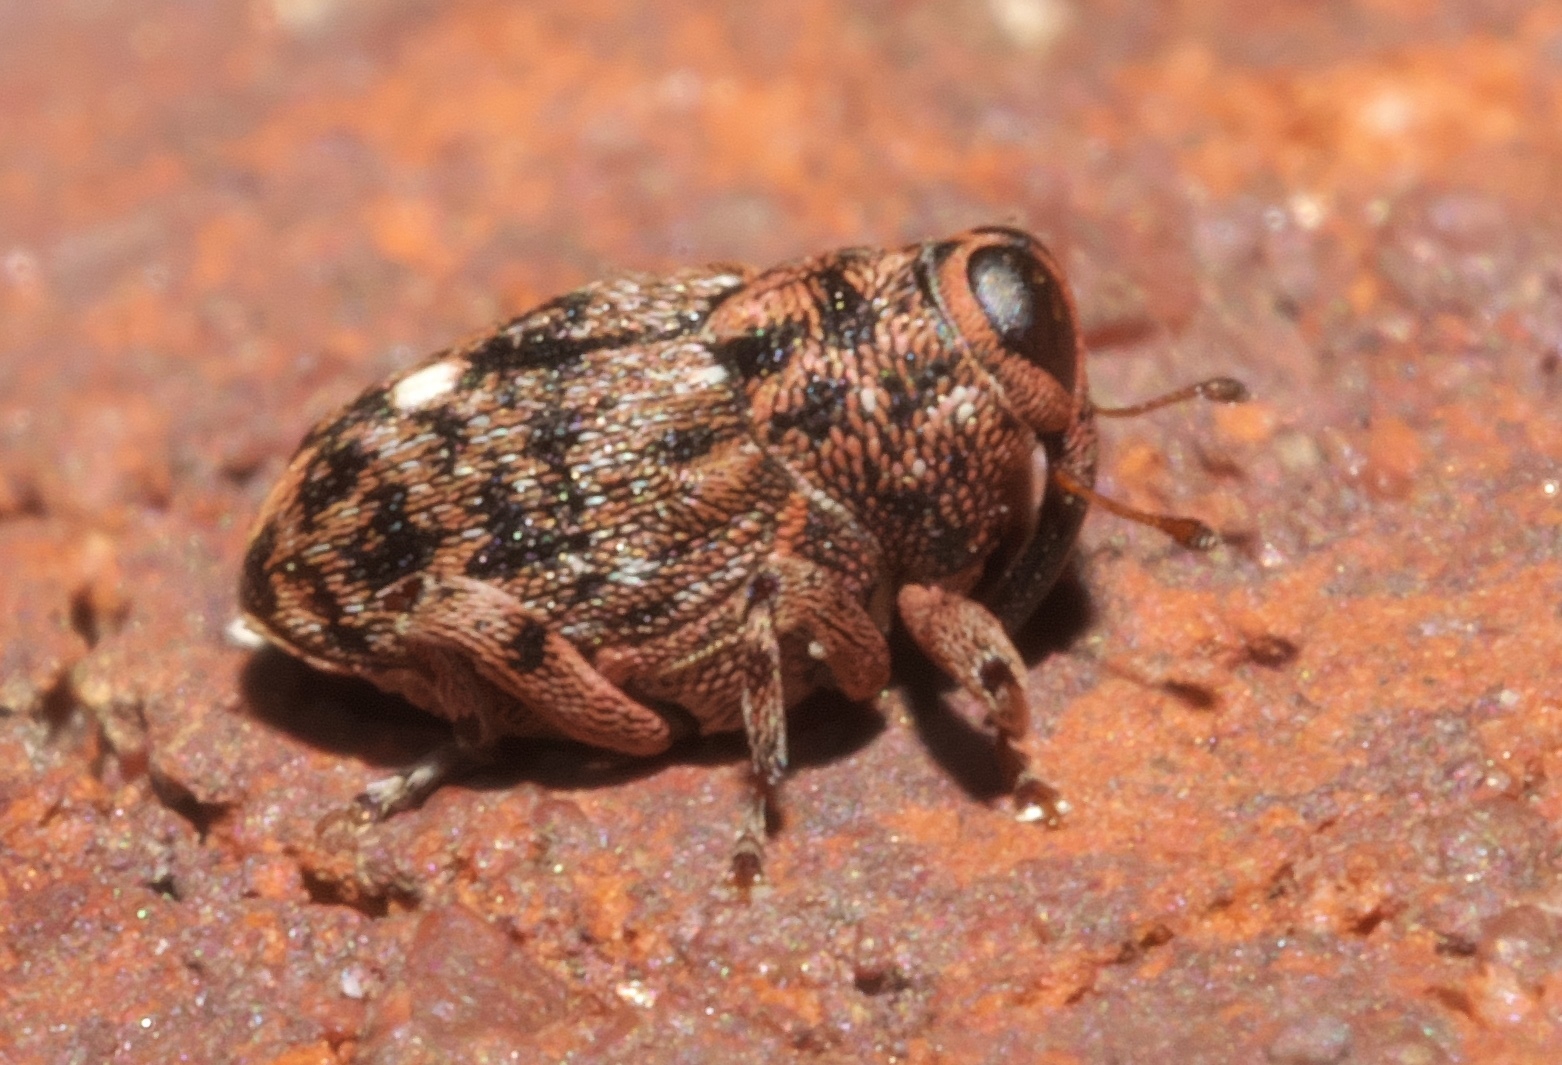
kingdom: Animalia
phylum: Arthropoda
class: Insecta
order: Coleoptera
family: Curculionidae
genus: Lechriops
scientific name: Lechriops oculatus
